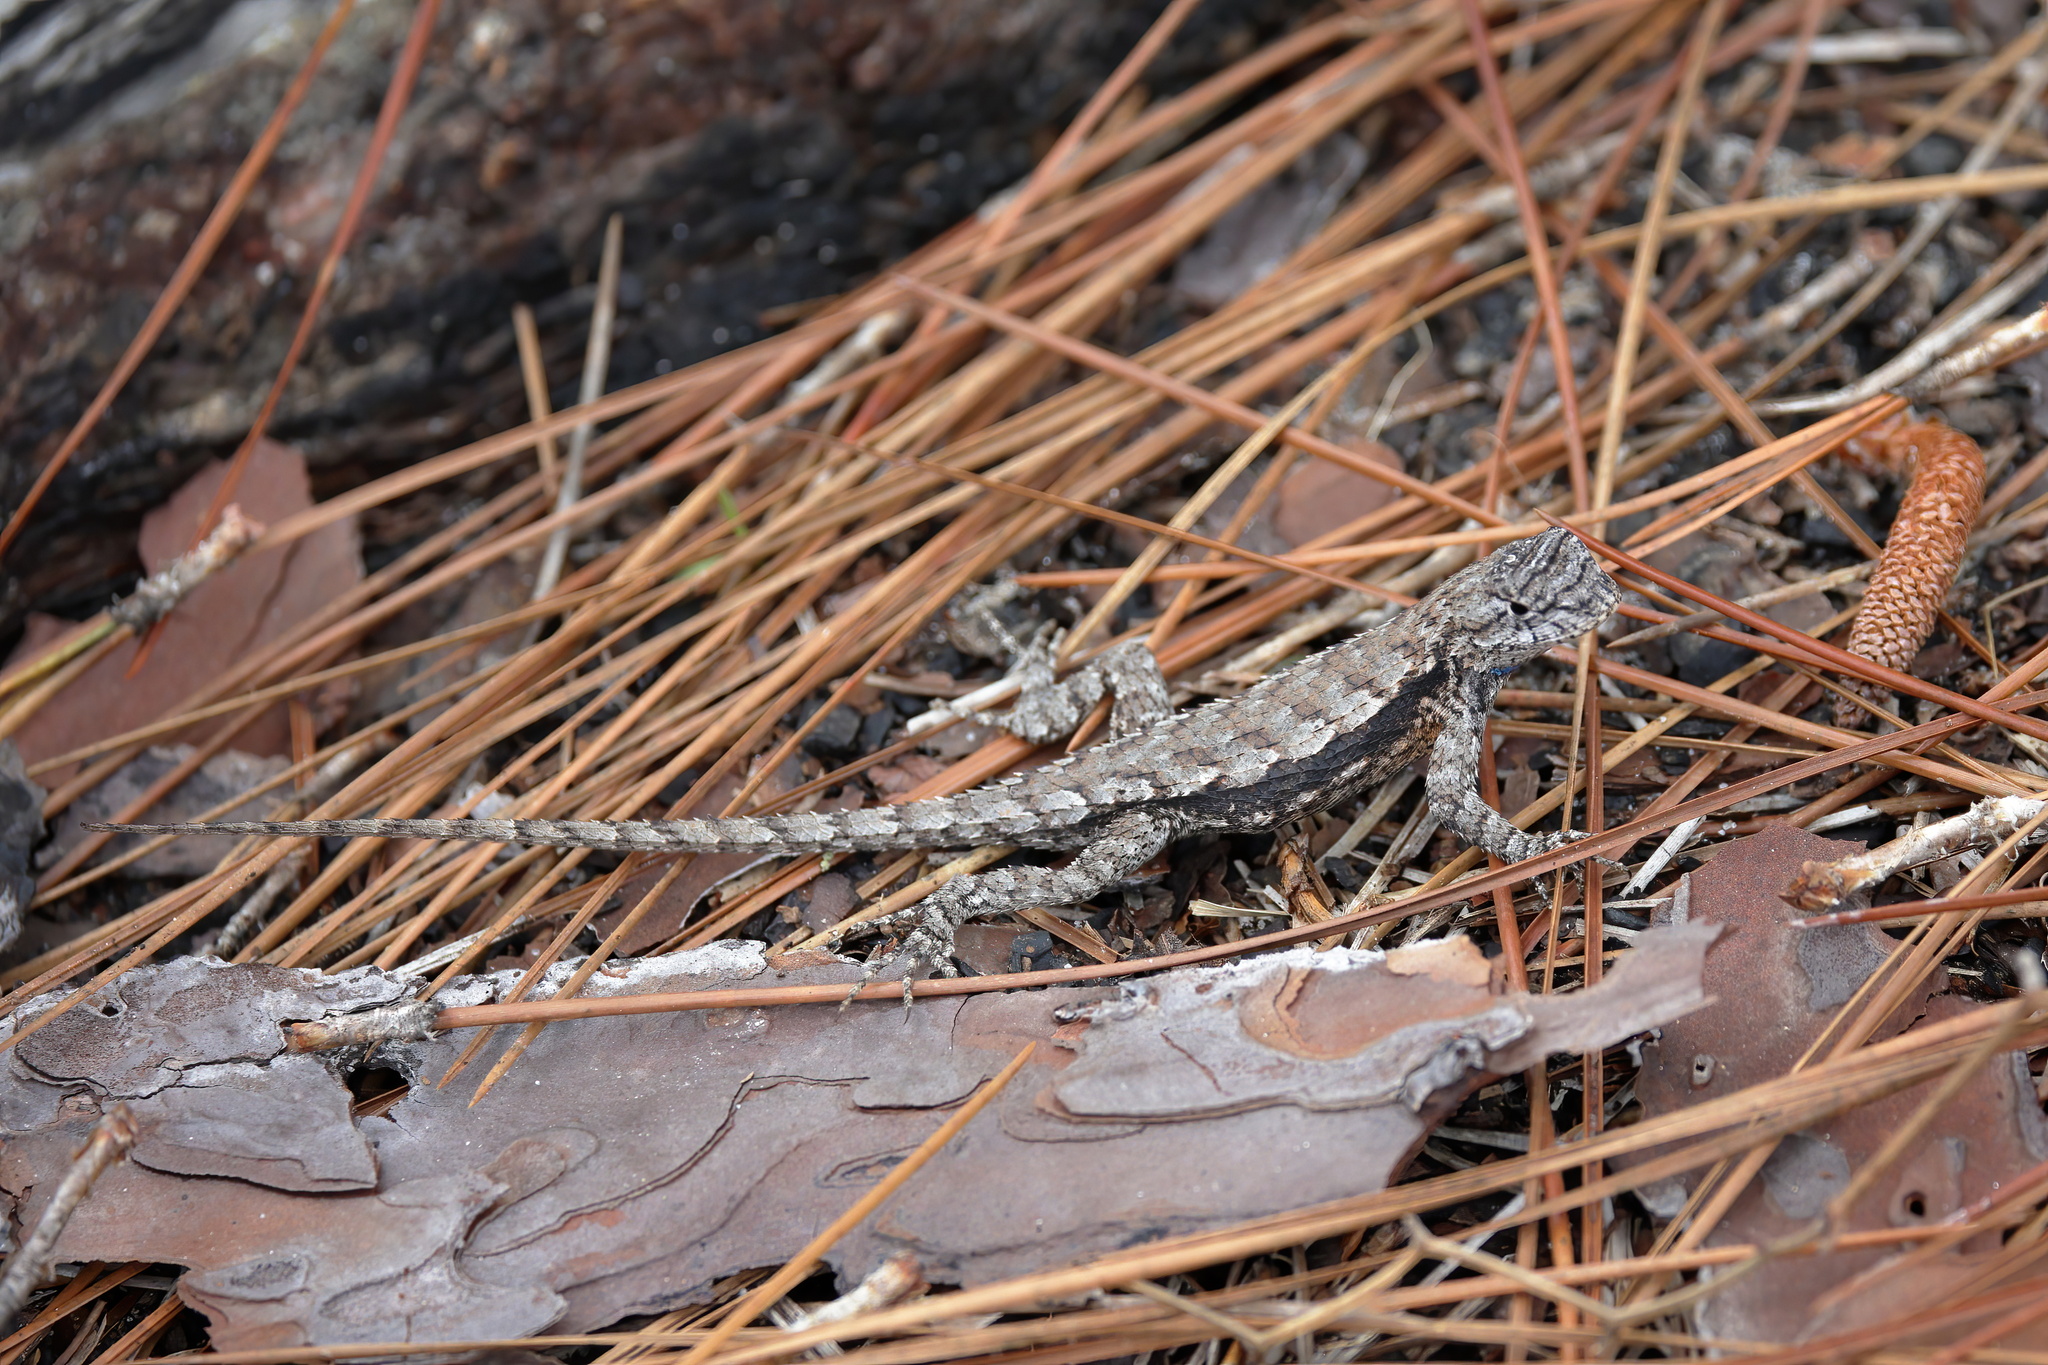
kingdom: Animalia
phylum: Chordata
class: Squamata
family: Phrynosomatidae
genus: Sceloporus
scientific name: Sceloporus undulatus
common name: Eastern fence lizard
